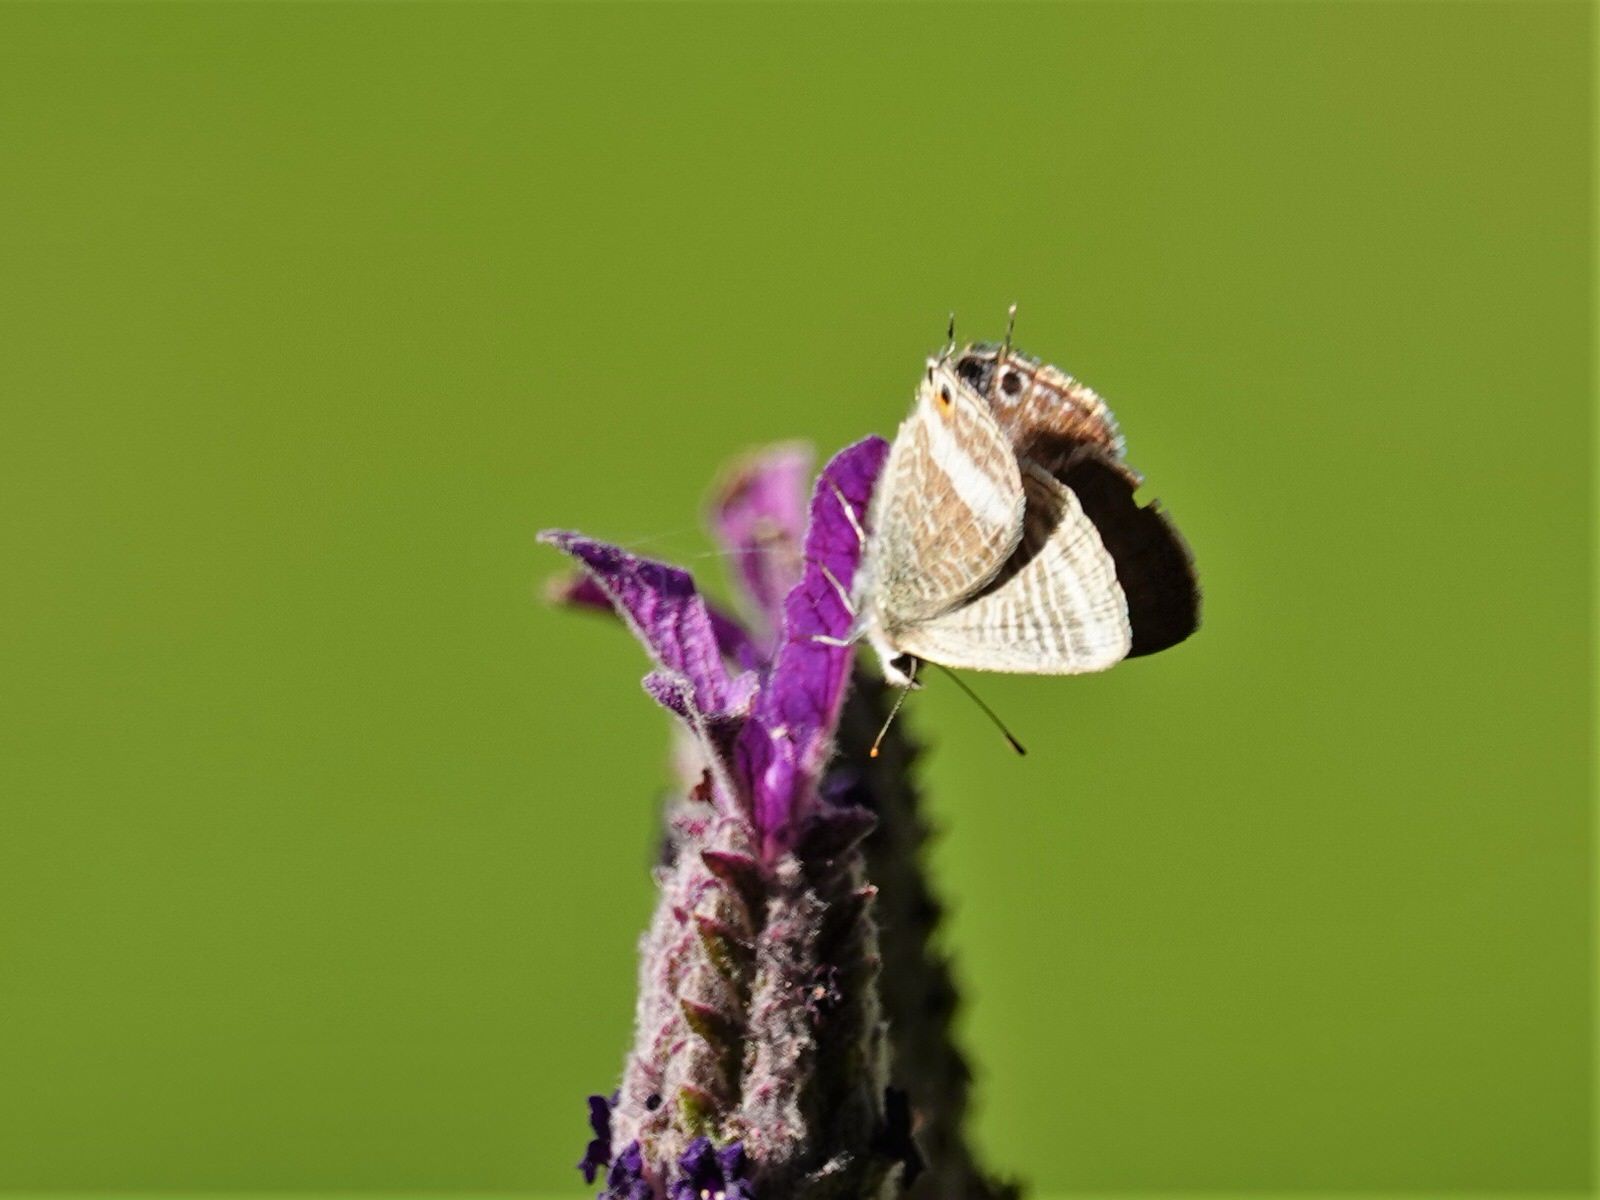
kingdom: Animalia
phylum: Arthropoda
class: Insecta
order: Lepidoptera
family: Lycaenidae
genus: Lampides
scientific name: Lampides boeticus
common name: Long-tailed blue
